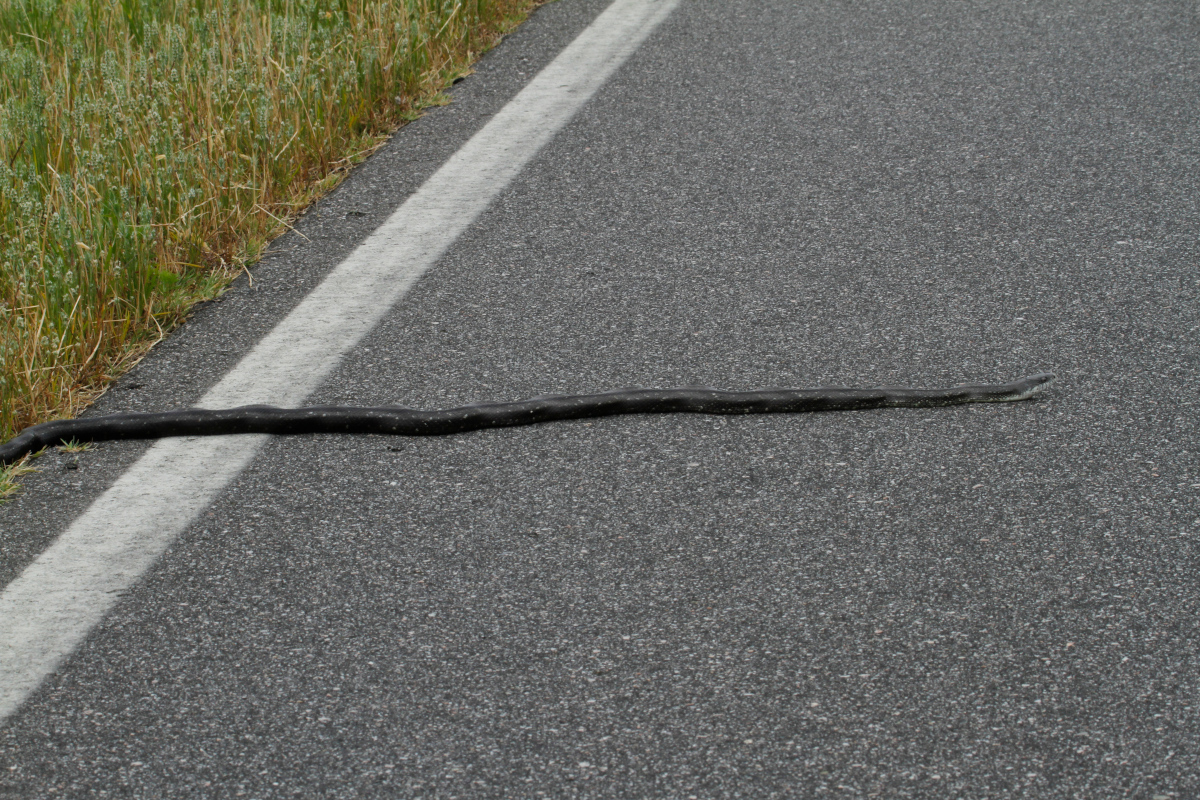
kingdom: Animalia
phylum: Chordata
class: Squamata
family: Colubridae
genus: Pantherophis
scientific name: Pantherophis alleghaniensis
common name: Eastern rat snake
